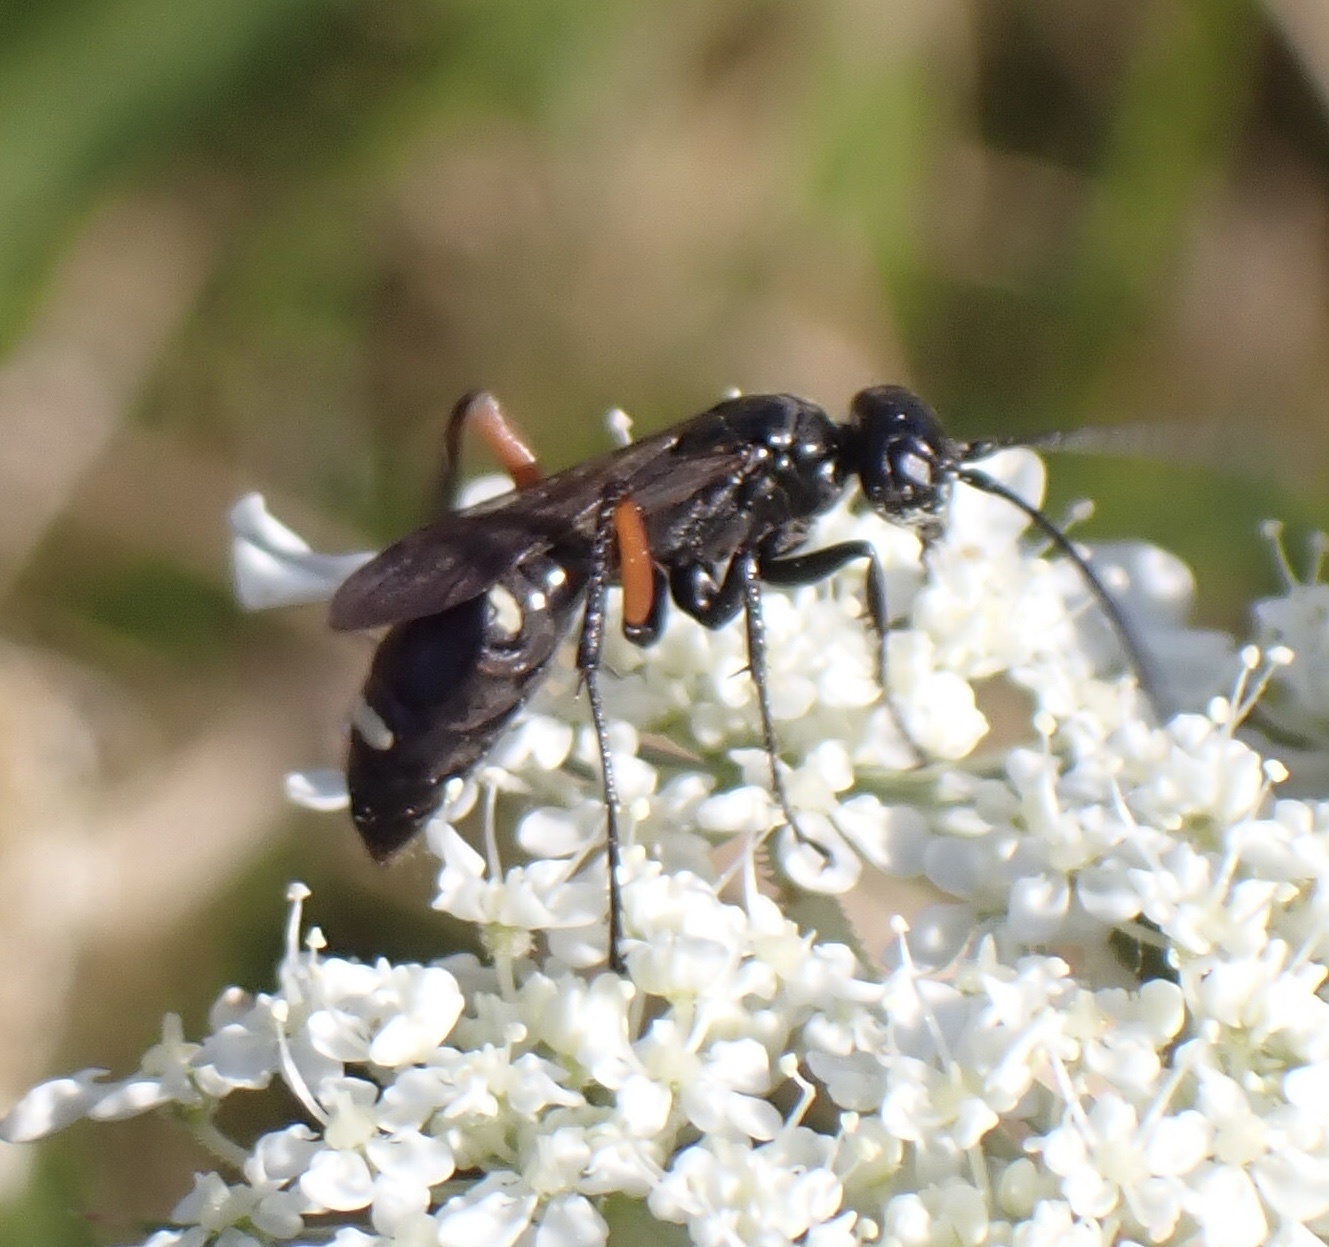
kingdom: Animalia
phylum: Arthropoda
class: Insecta
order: Hymenoptera
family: Pompilidae
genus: Cryptocheilus
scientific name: Cryptocheilus versicolor
